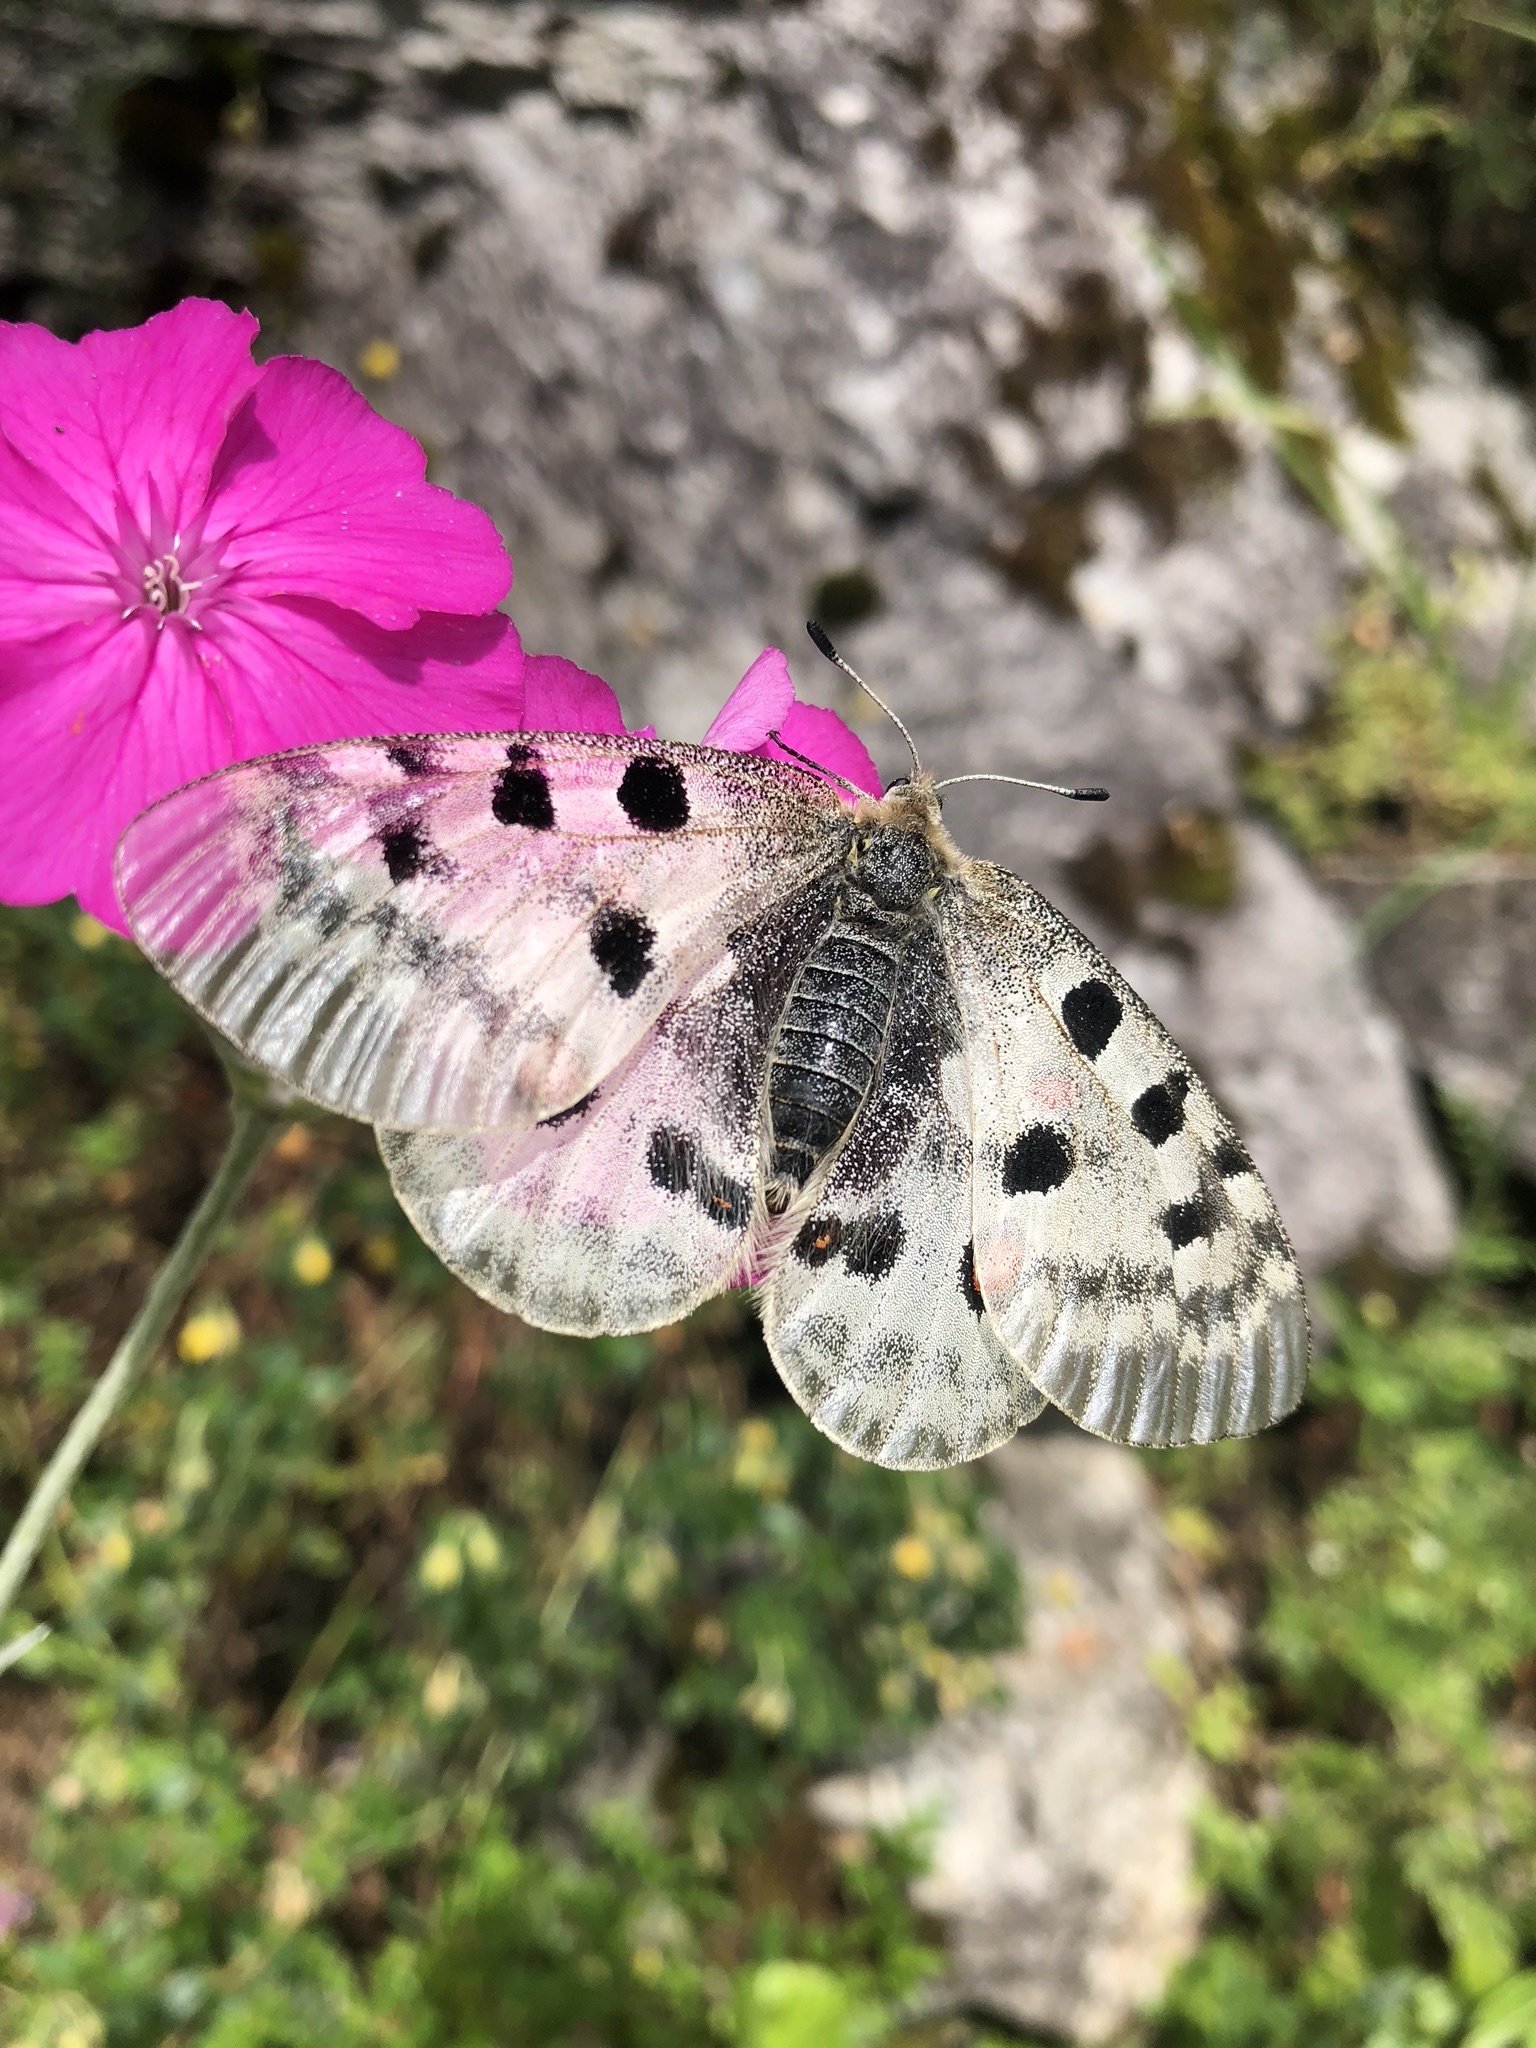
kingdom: Animalia
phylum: Arthropoda
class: Insecta
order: Lepidoptera
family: Papilionidae
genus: Parnassius
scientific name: Parnassius apollo
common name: Apollo
